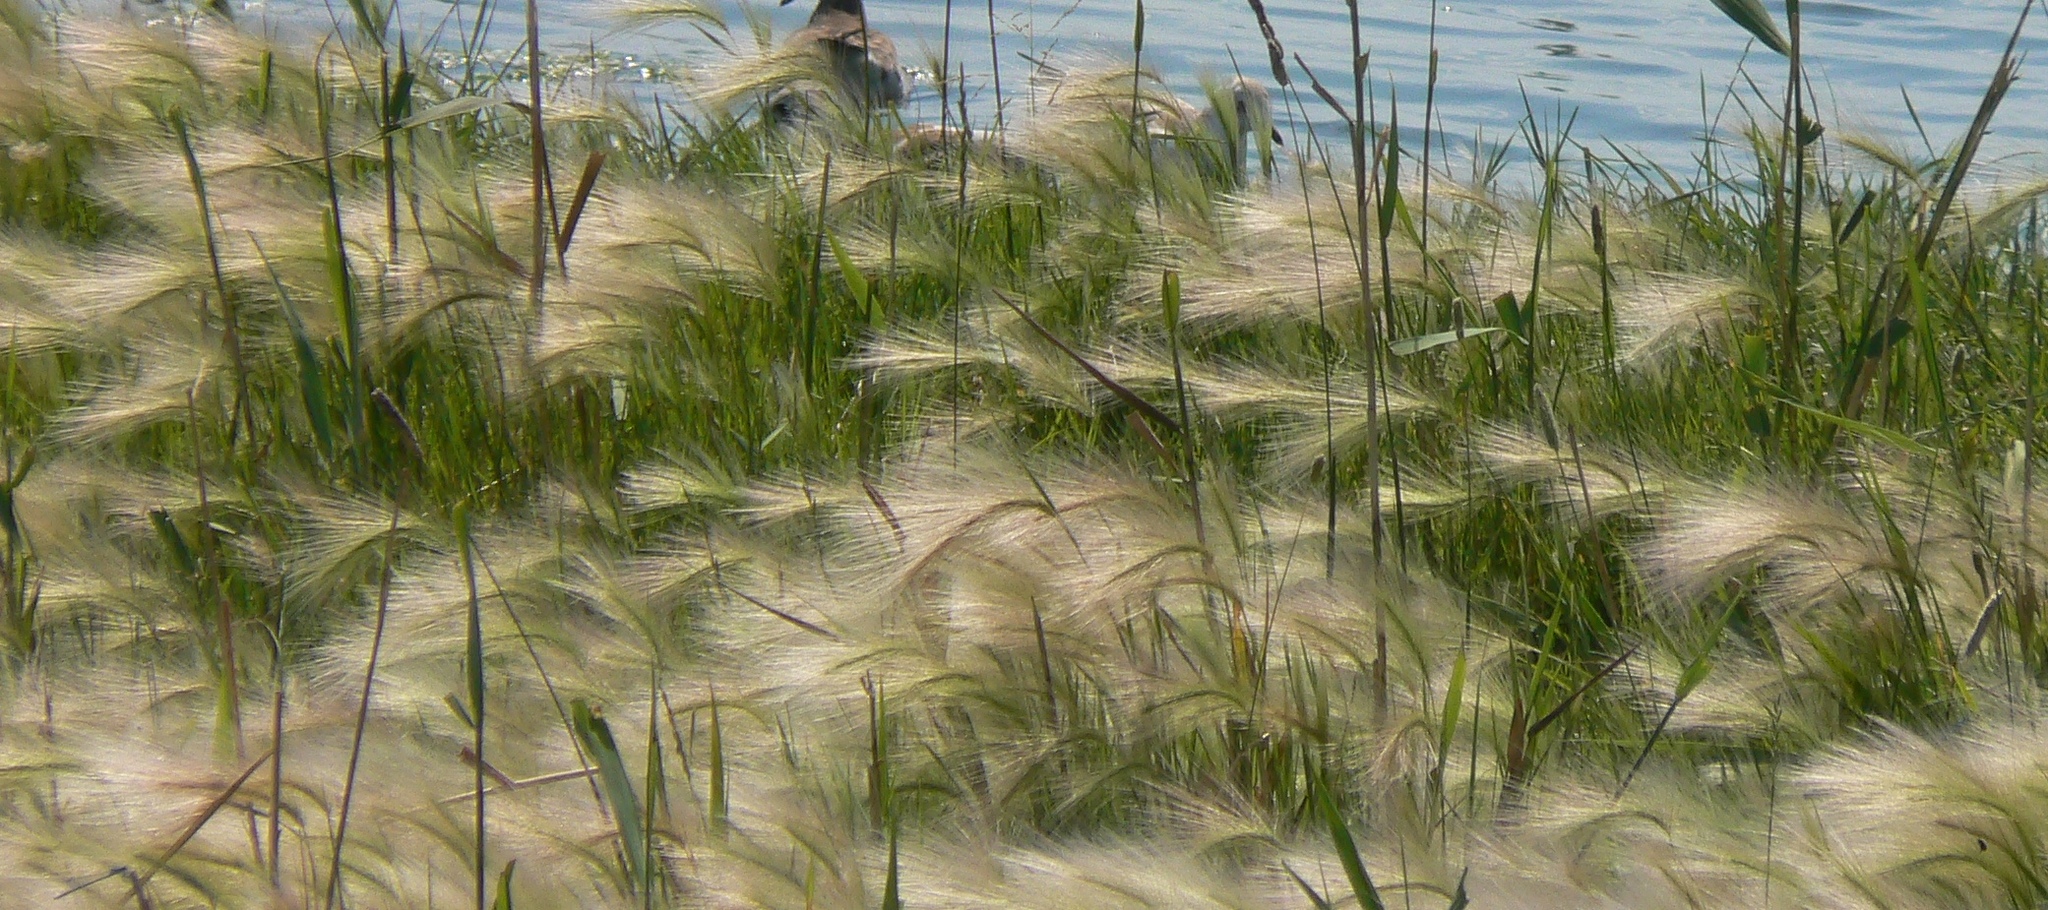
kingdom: Plantae
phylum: Tracheophyta
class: Liliopsida
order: Poales
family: Poaceae
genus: Hordeum
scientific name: Hordeum jubatum
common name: Foxtail barley
